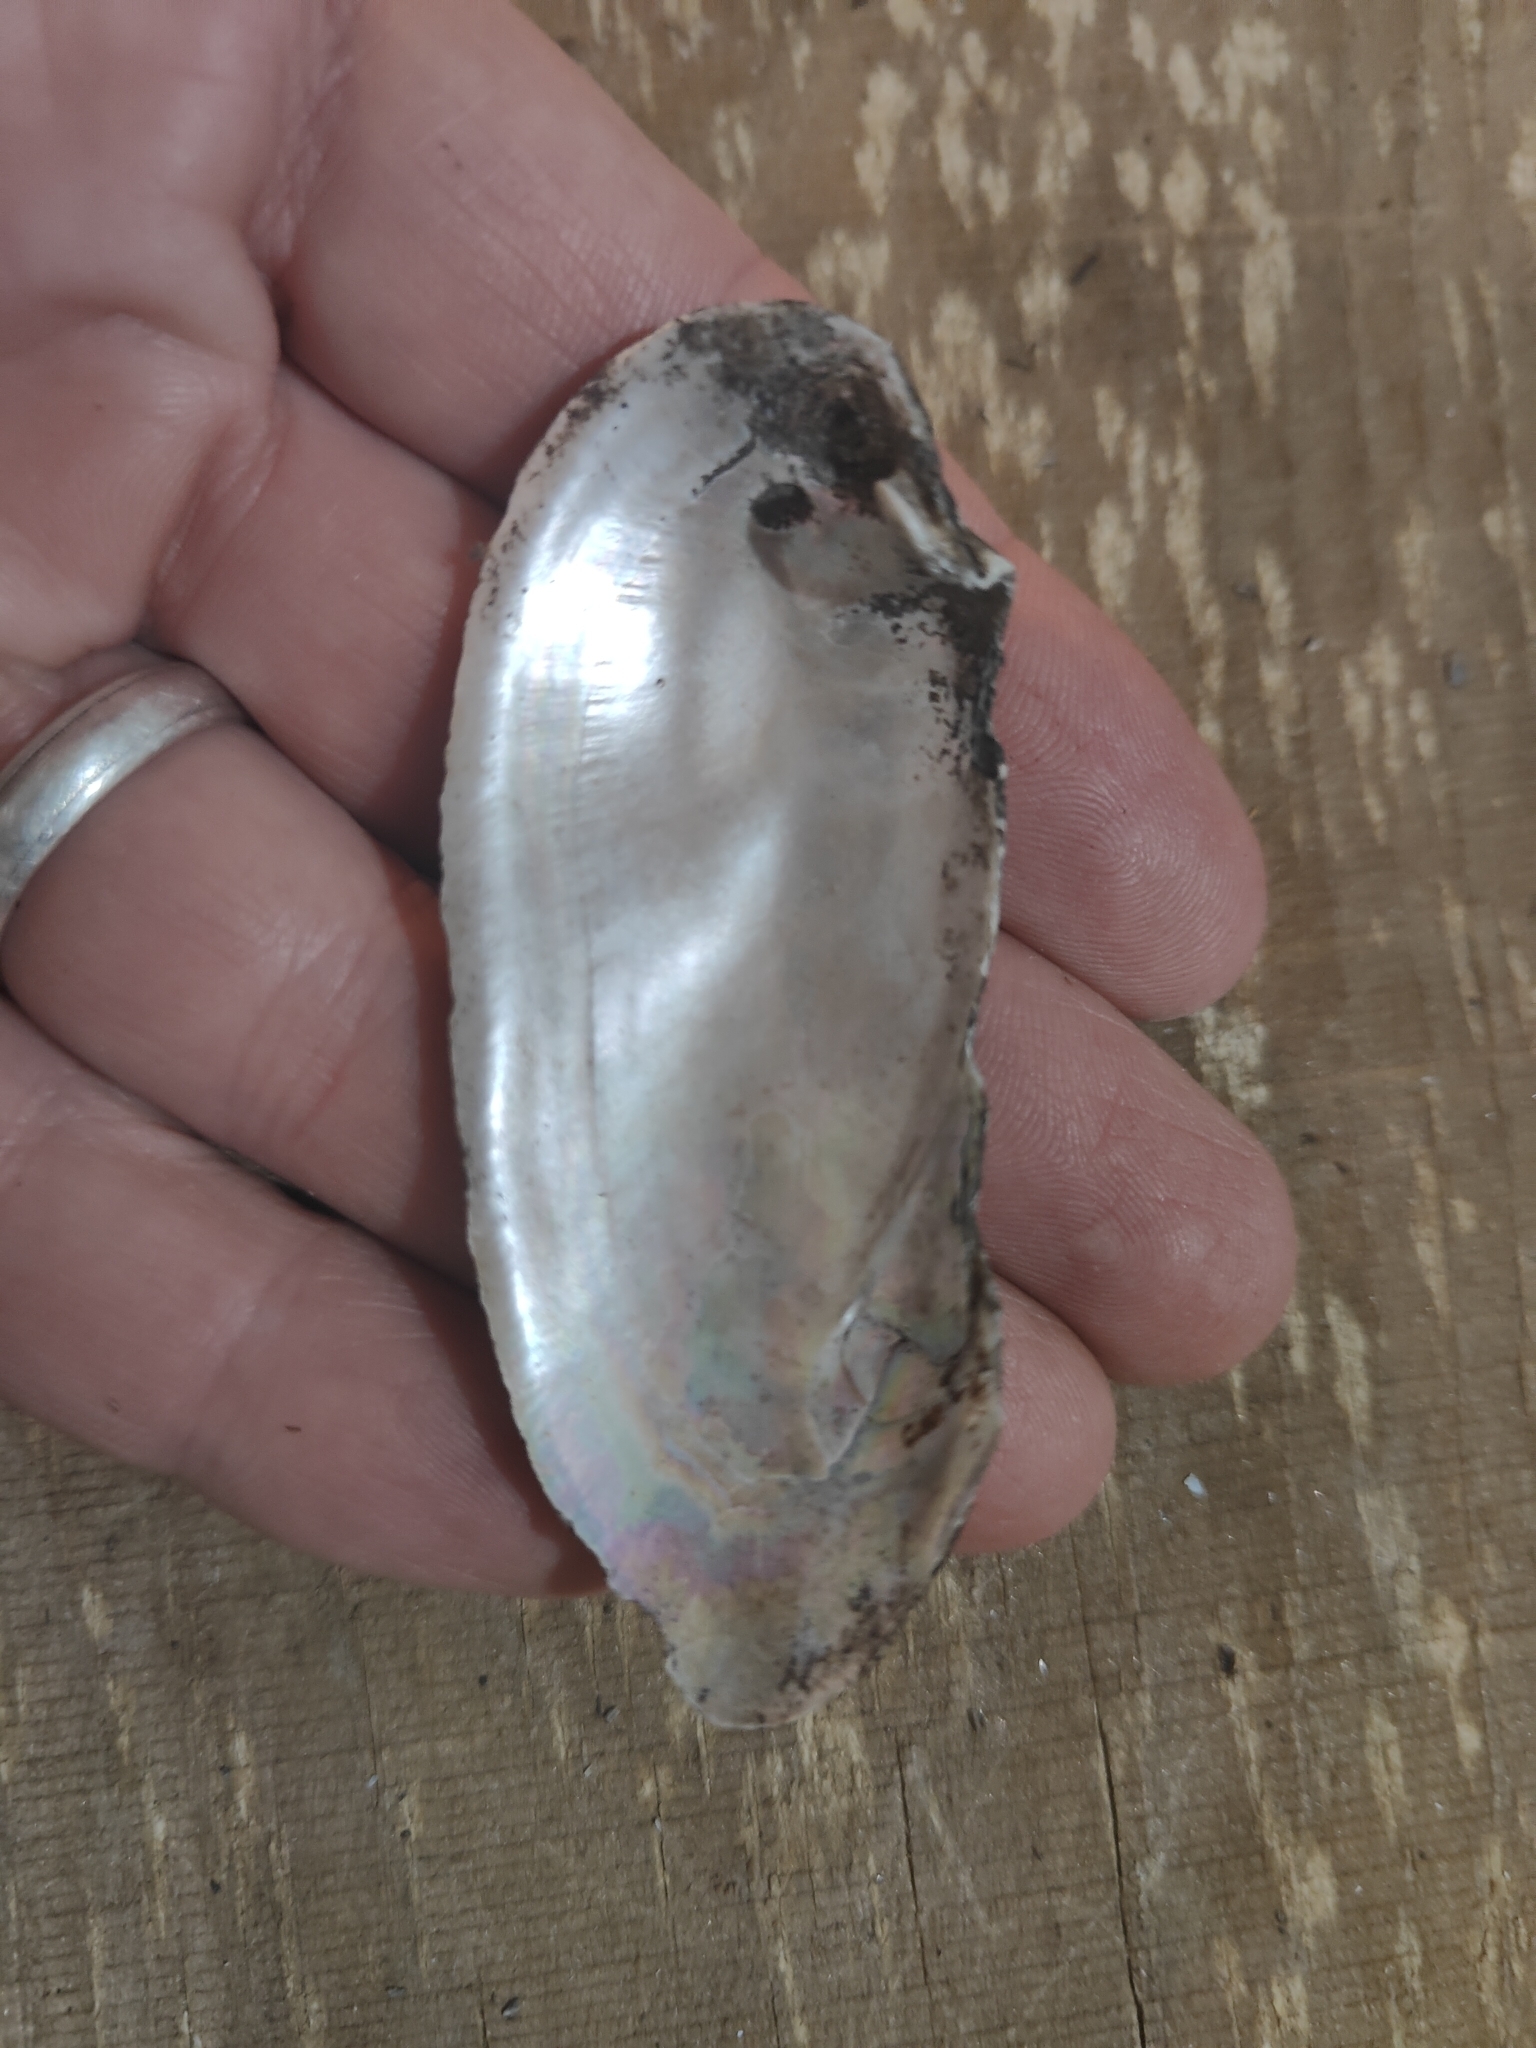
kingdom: Animalia
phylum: Mollusca
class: Bivalvia
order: Unionida
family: Unionidae
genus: Lampsilis
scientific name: Lampsilis teres
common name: Yellow sandshell
